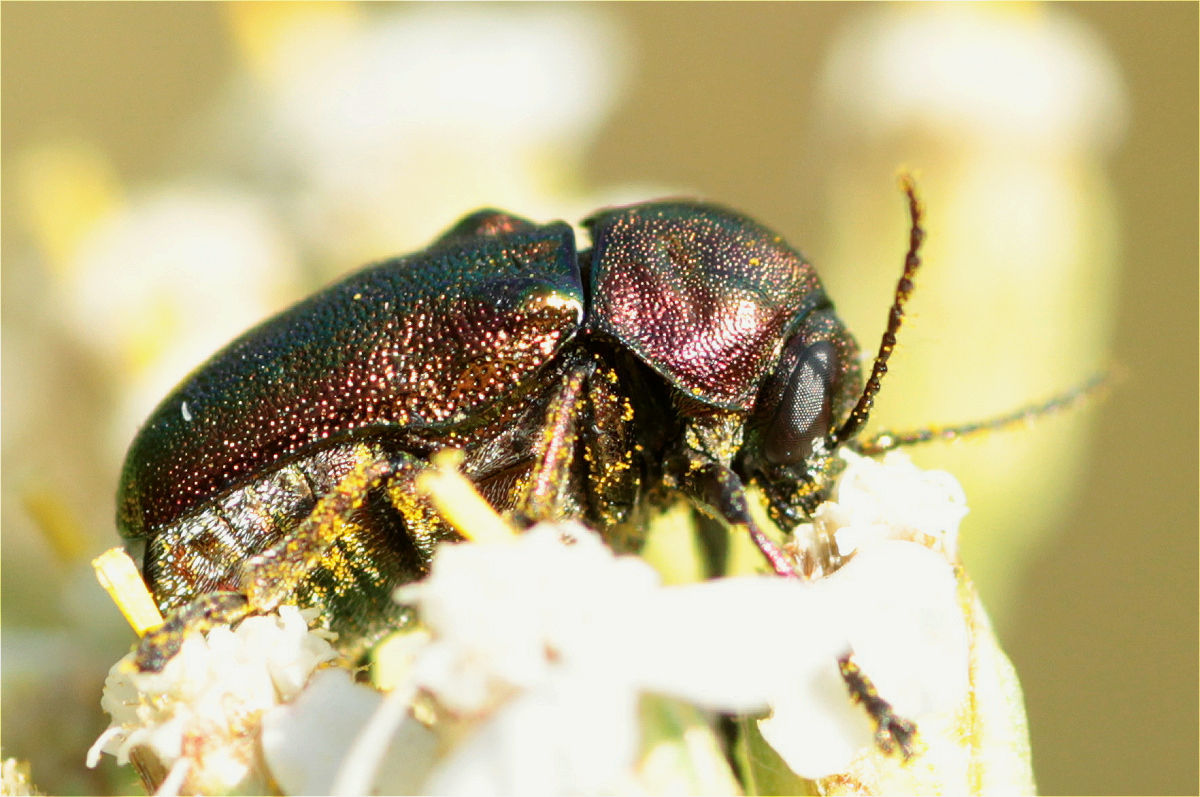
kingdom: Animalia
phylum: Arthropoda
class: Insecta
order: Coleoptera
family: Chrysomelidae
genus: Cryptocephalus
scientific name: Cryptocephalus sericeus
